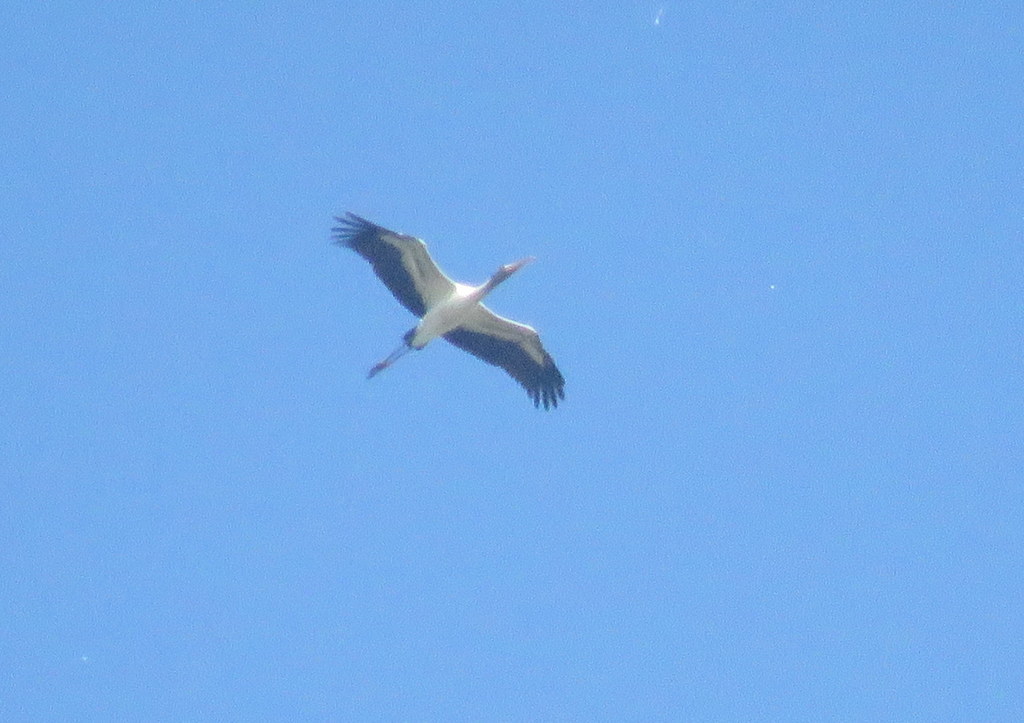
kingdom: Animalia
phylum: Chordata
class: Aves
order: Ciconiiformes
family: Ciconiidae
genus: Mycteria
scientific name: Mycteria americana
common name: Wood stork
